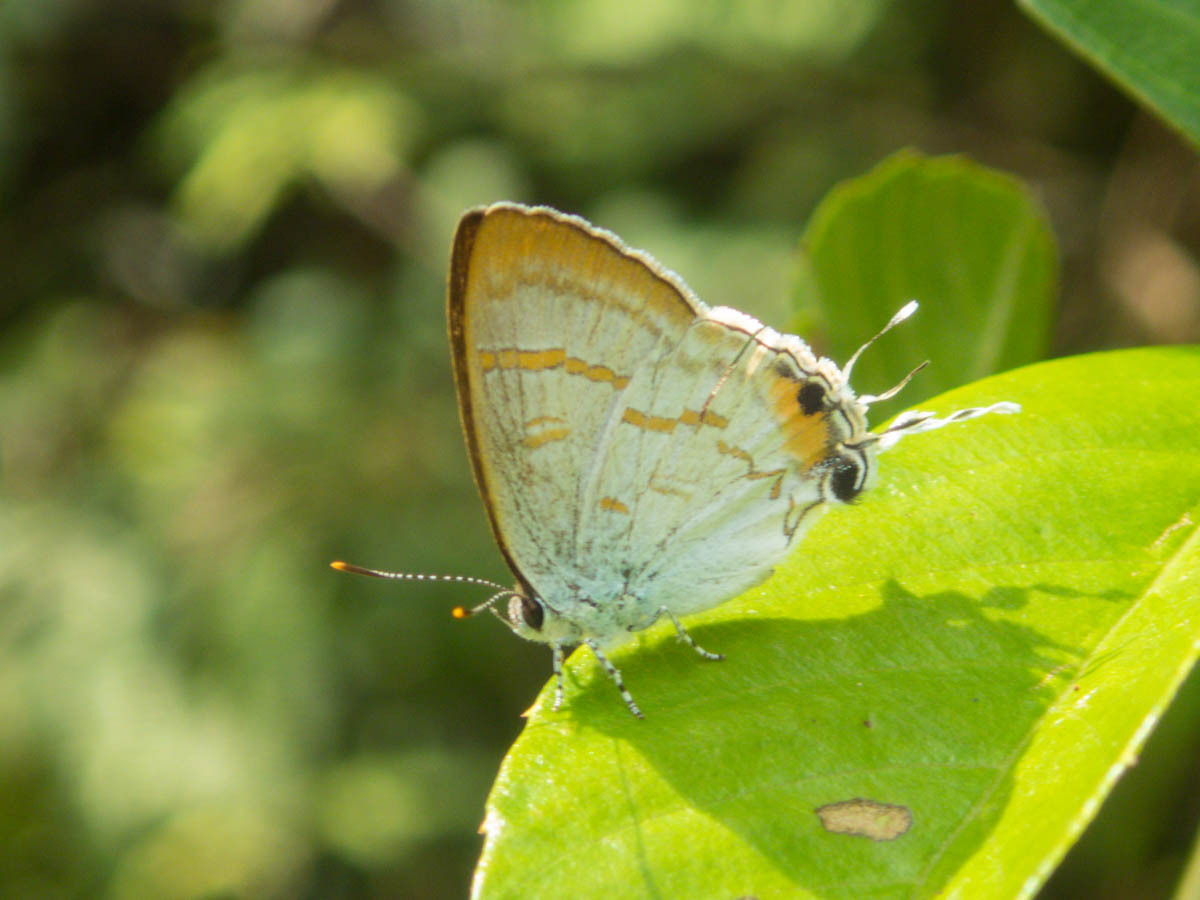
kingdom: Animalia
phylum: Arthropoda
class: Insecta
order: Lepidoptera
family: Lycaenidae
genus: Hypolycaena
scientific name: Hypolycaena thecloides
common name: Dark tit
